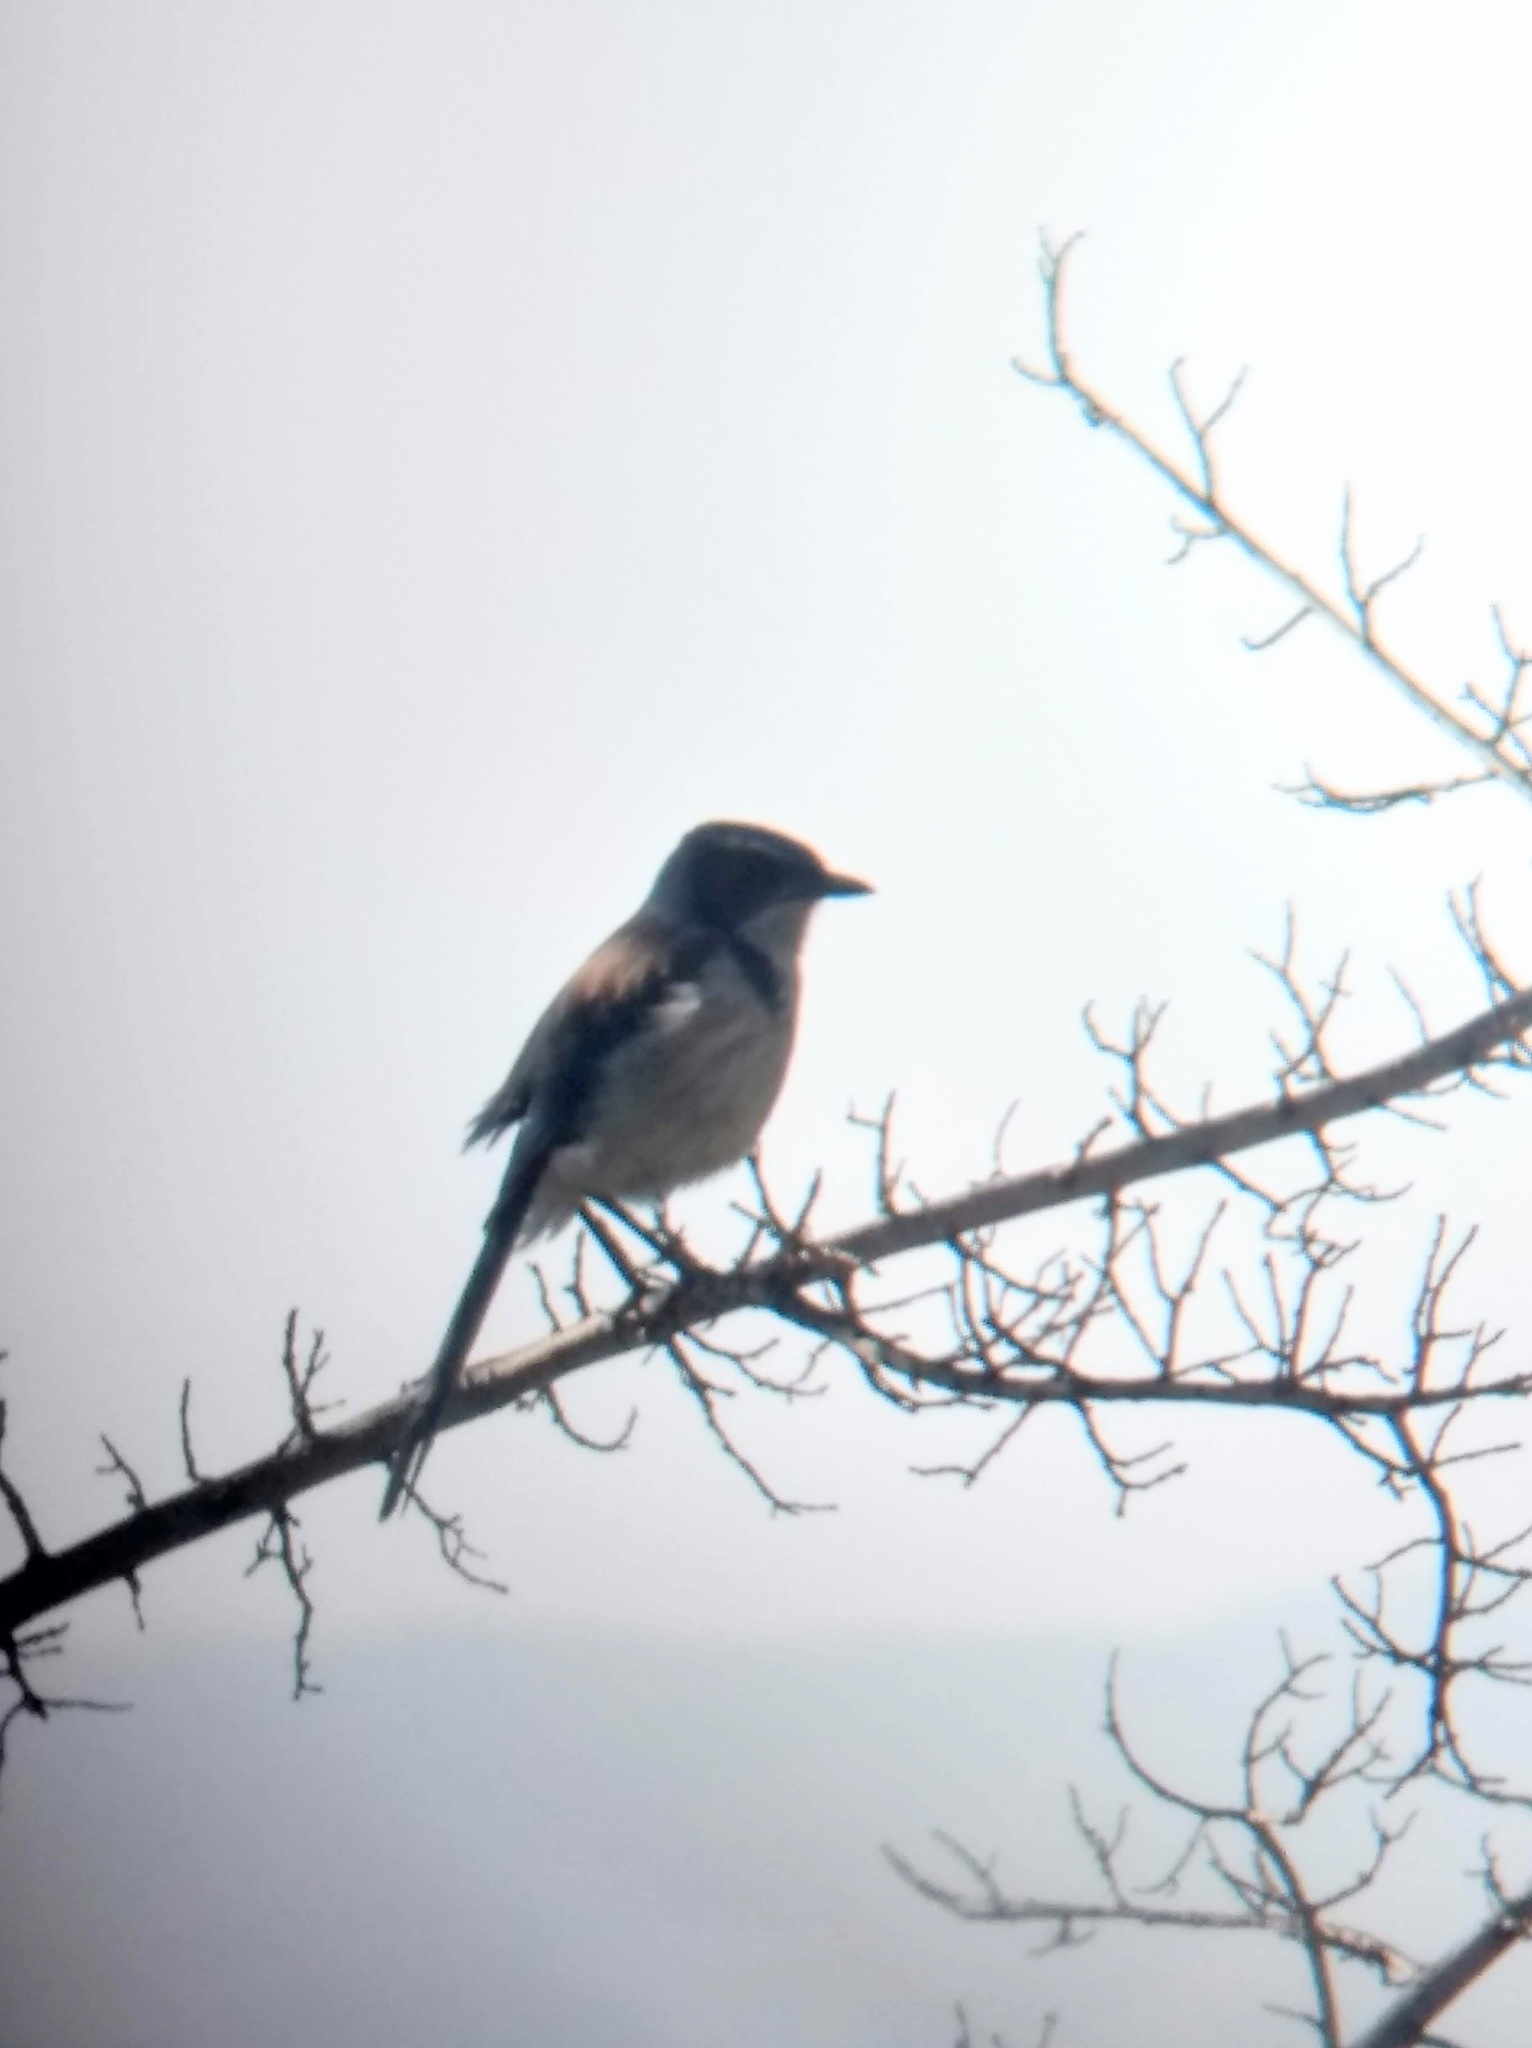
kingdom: Animalia
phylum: Chordata
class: Aves
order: Passeriformes
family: Corvidae
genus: Aphelocoma
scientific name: Aphelocoma californica
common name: California scrub-jay
